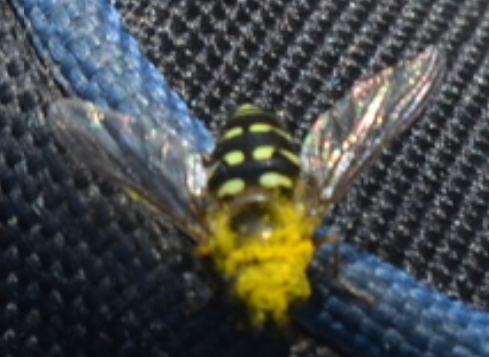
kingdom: Animalia
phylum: Arthropoda
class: Insecta
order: Diptera
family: Syrphidae
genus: Dasysyrphus
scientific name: Dasysyrphus
